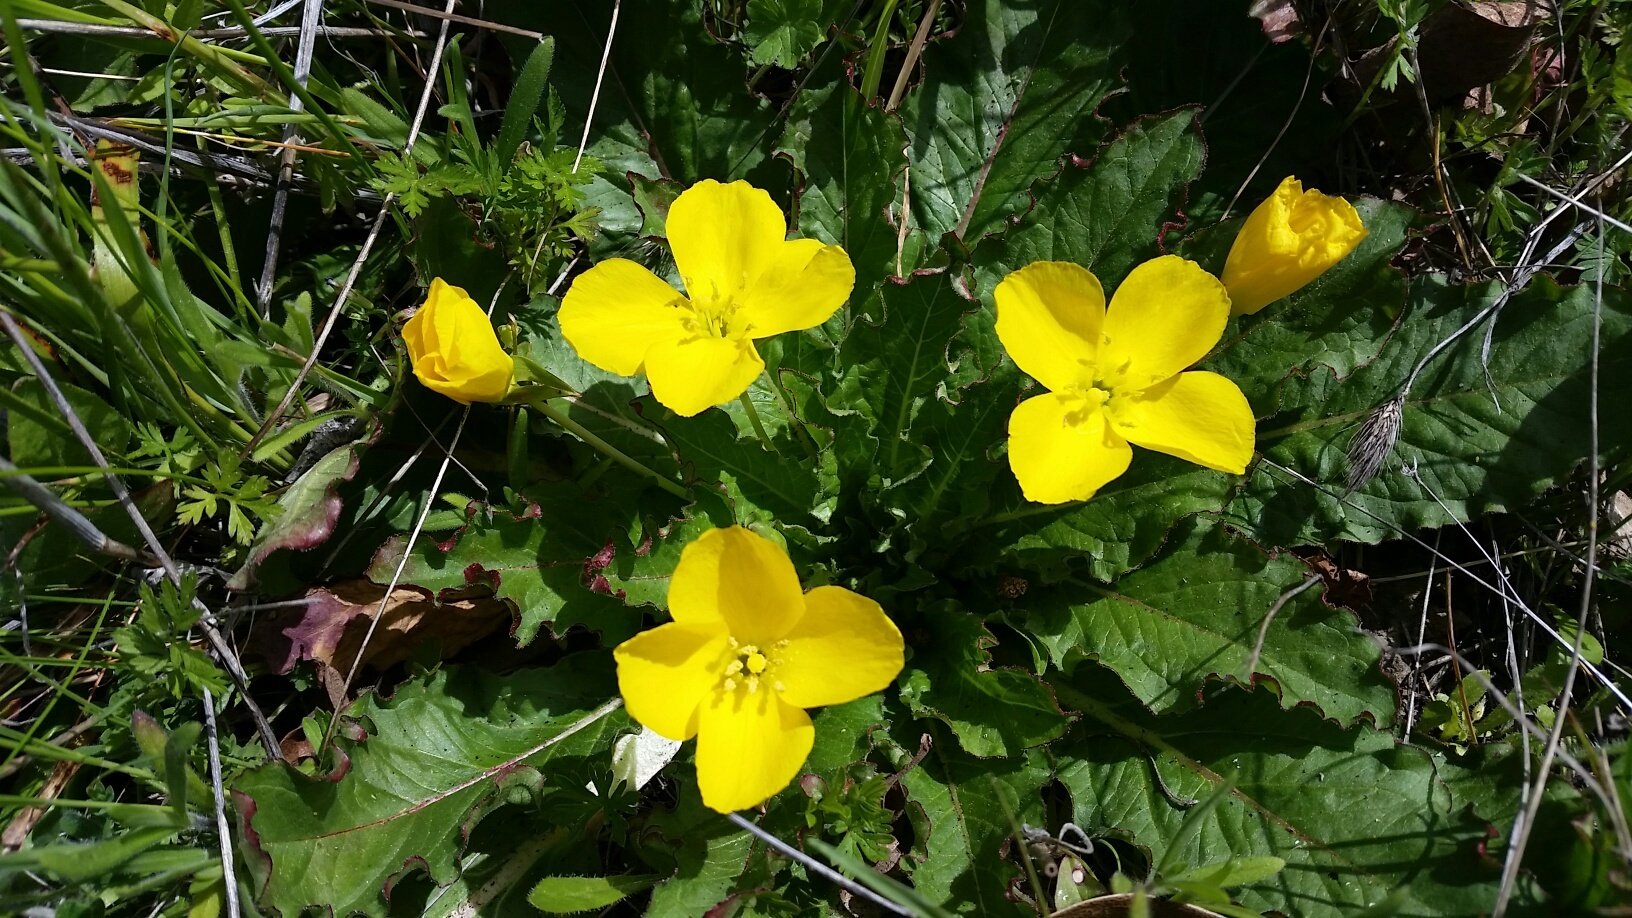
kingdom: Plantae
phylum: Tracheophyta
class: Magnoliopsida
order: Myrtales
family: Onagraceae
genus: Taraxia
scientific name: Taraxia ovata
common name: Goldeneggs
